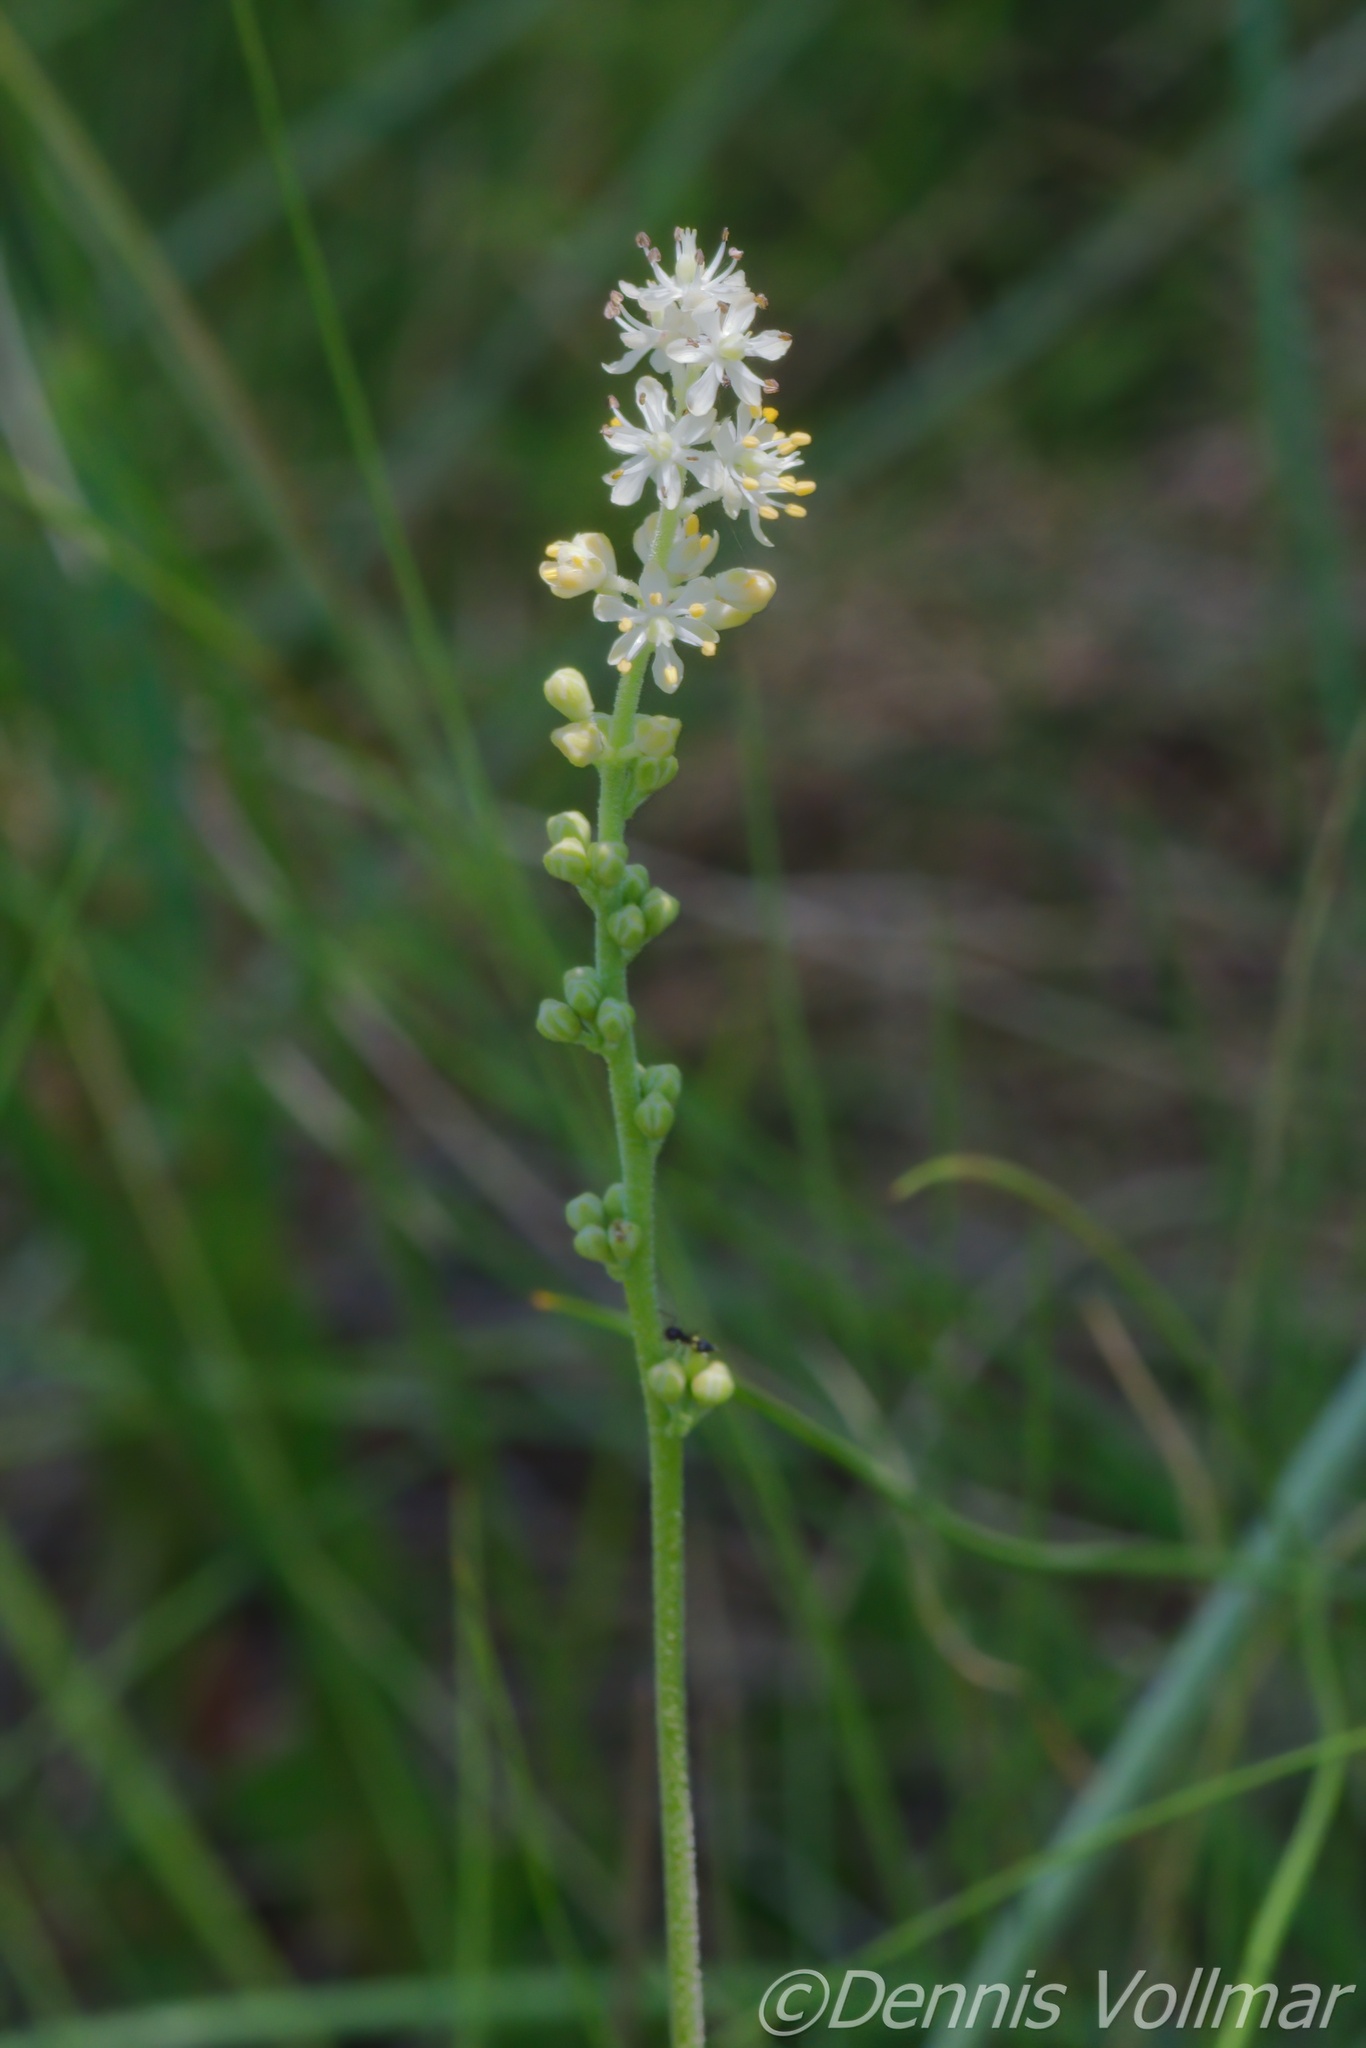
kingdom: Plantae
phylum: Tracheophyta
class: Liliopsida
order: Alismatales
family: Tofieldiaceae
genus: Triantha
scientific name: Triantha racemosa
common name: Coastal false asphodel
